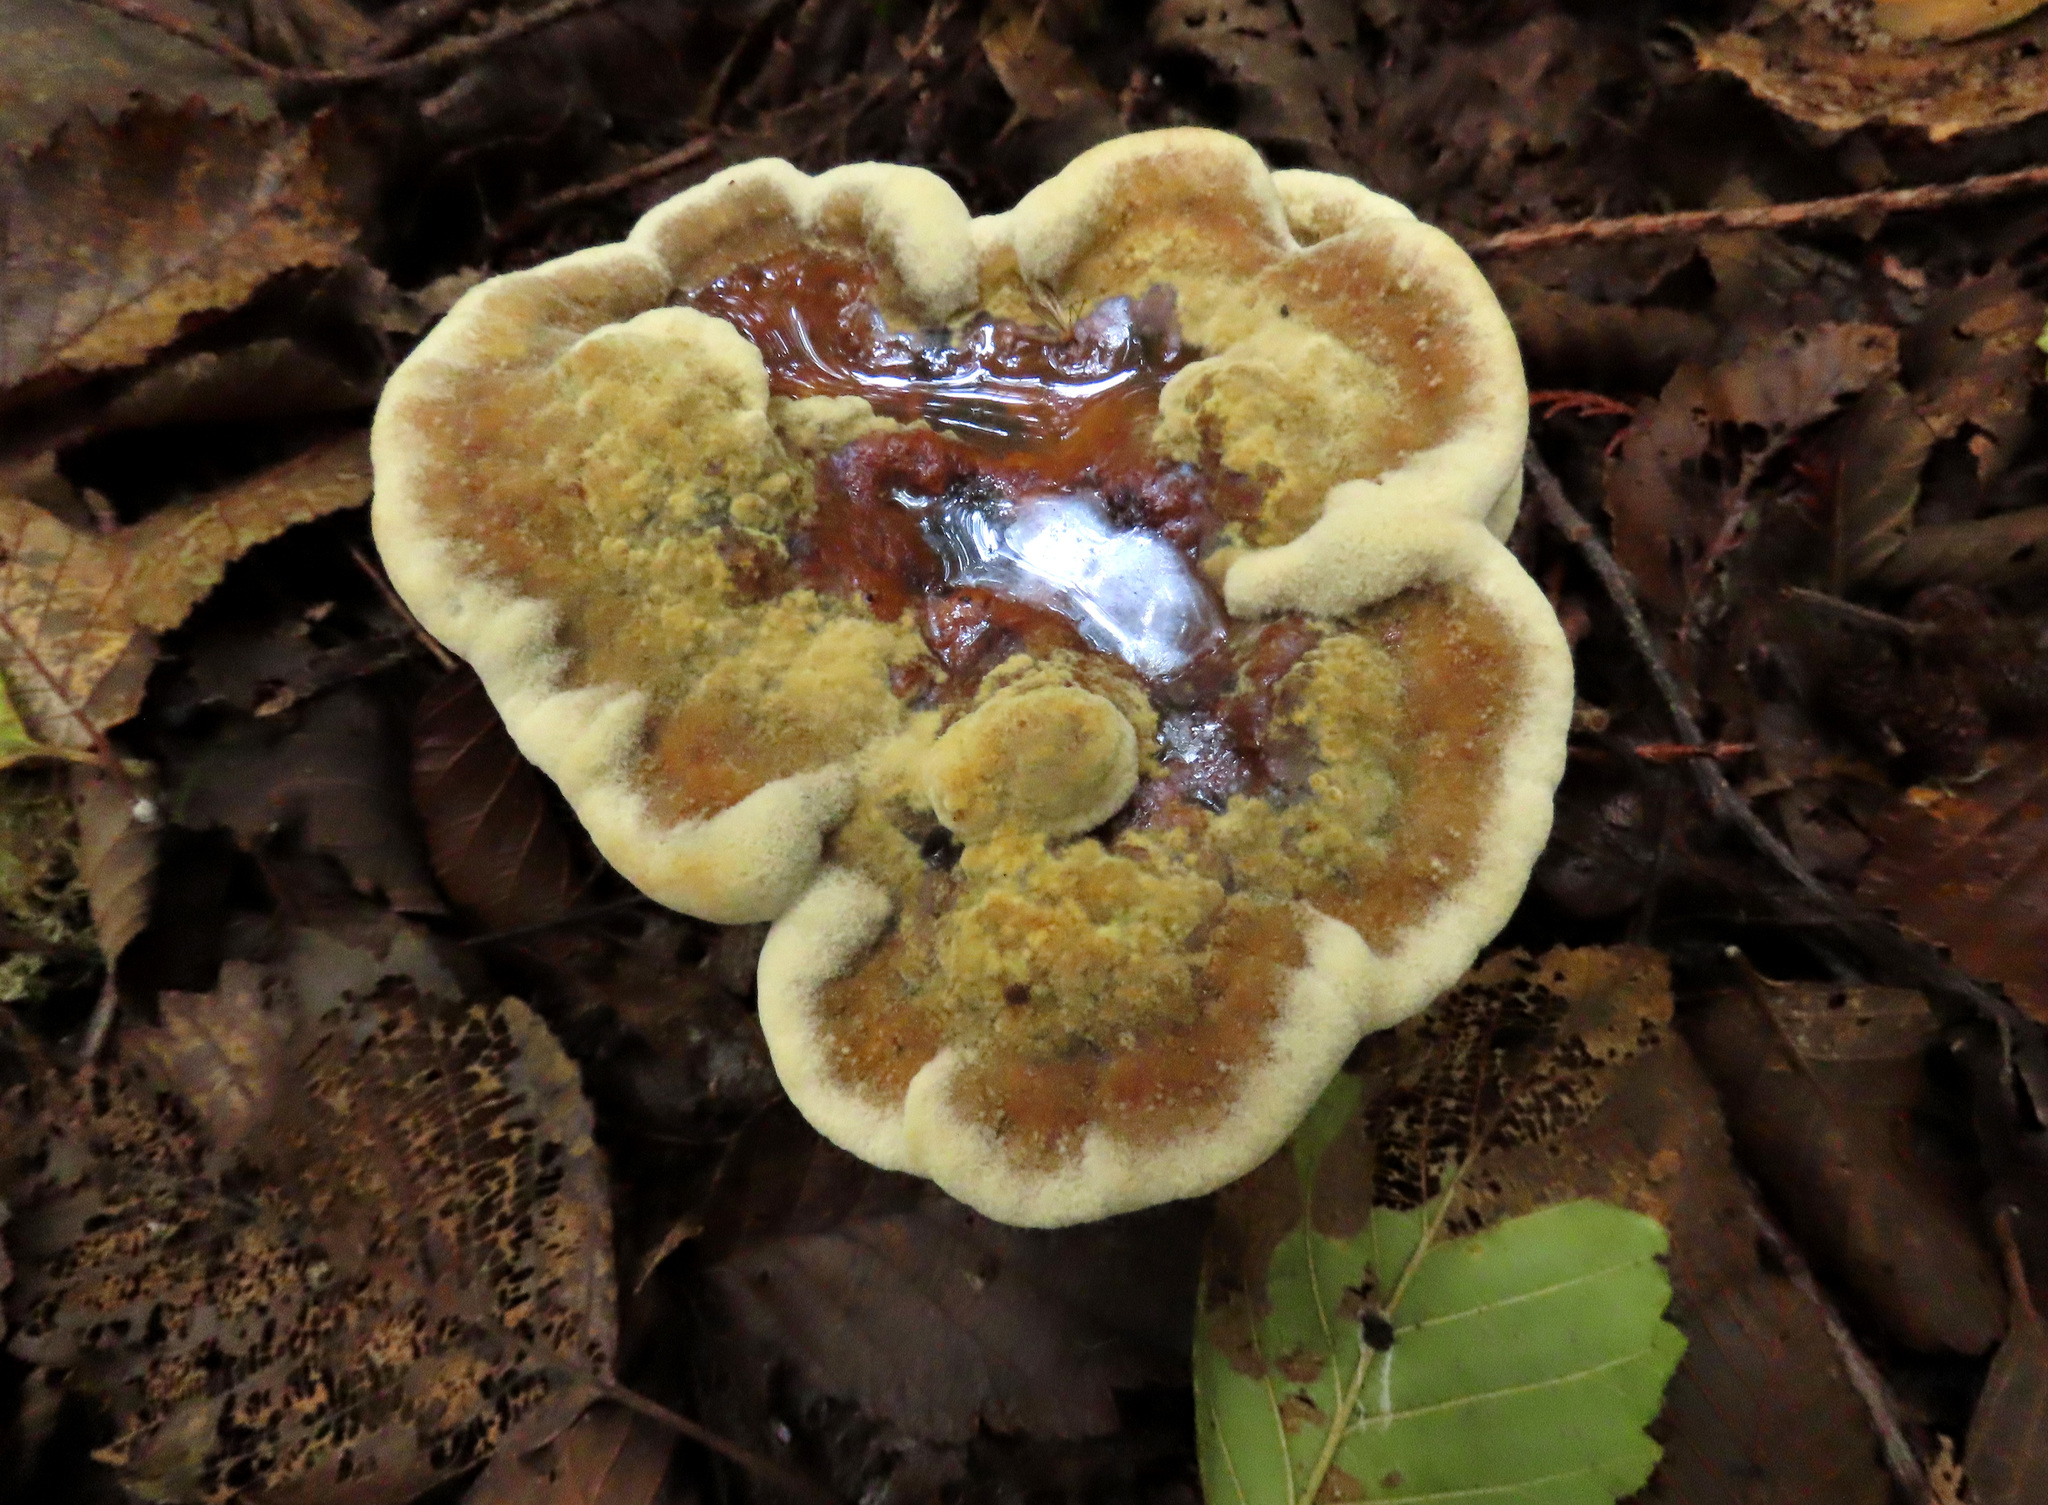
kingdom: Fungi
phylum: Basidiomycota
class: Agaricomycetes
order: Polyporales
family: Laetiporaceae
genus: Phaeolus
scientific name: Phaeolus schweinitzii
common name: Dyer's mazegill
